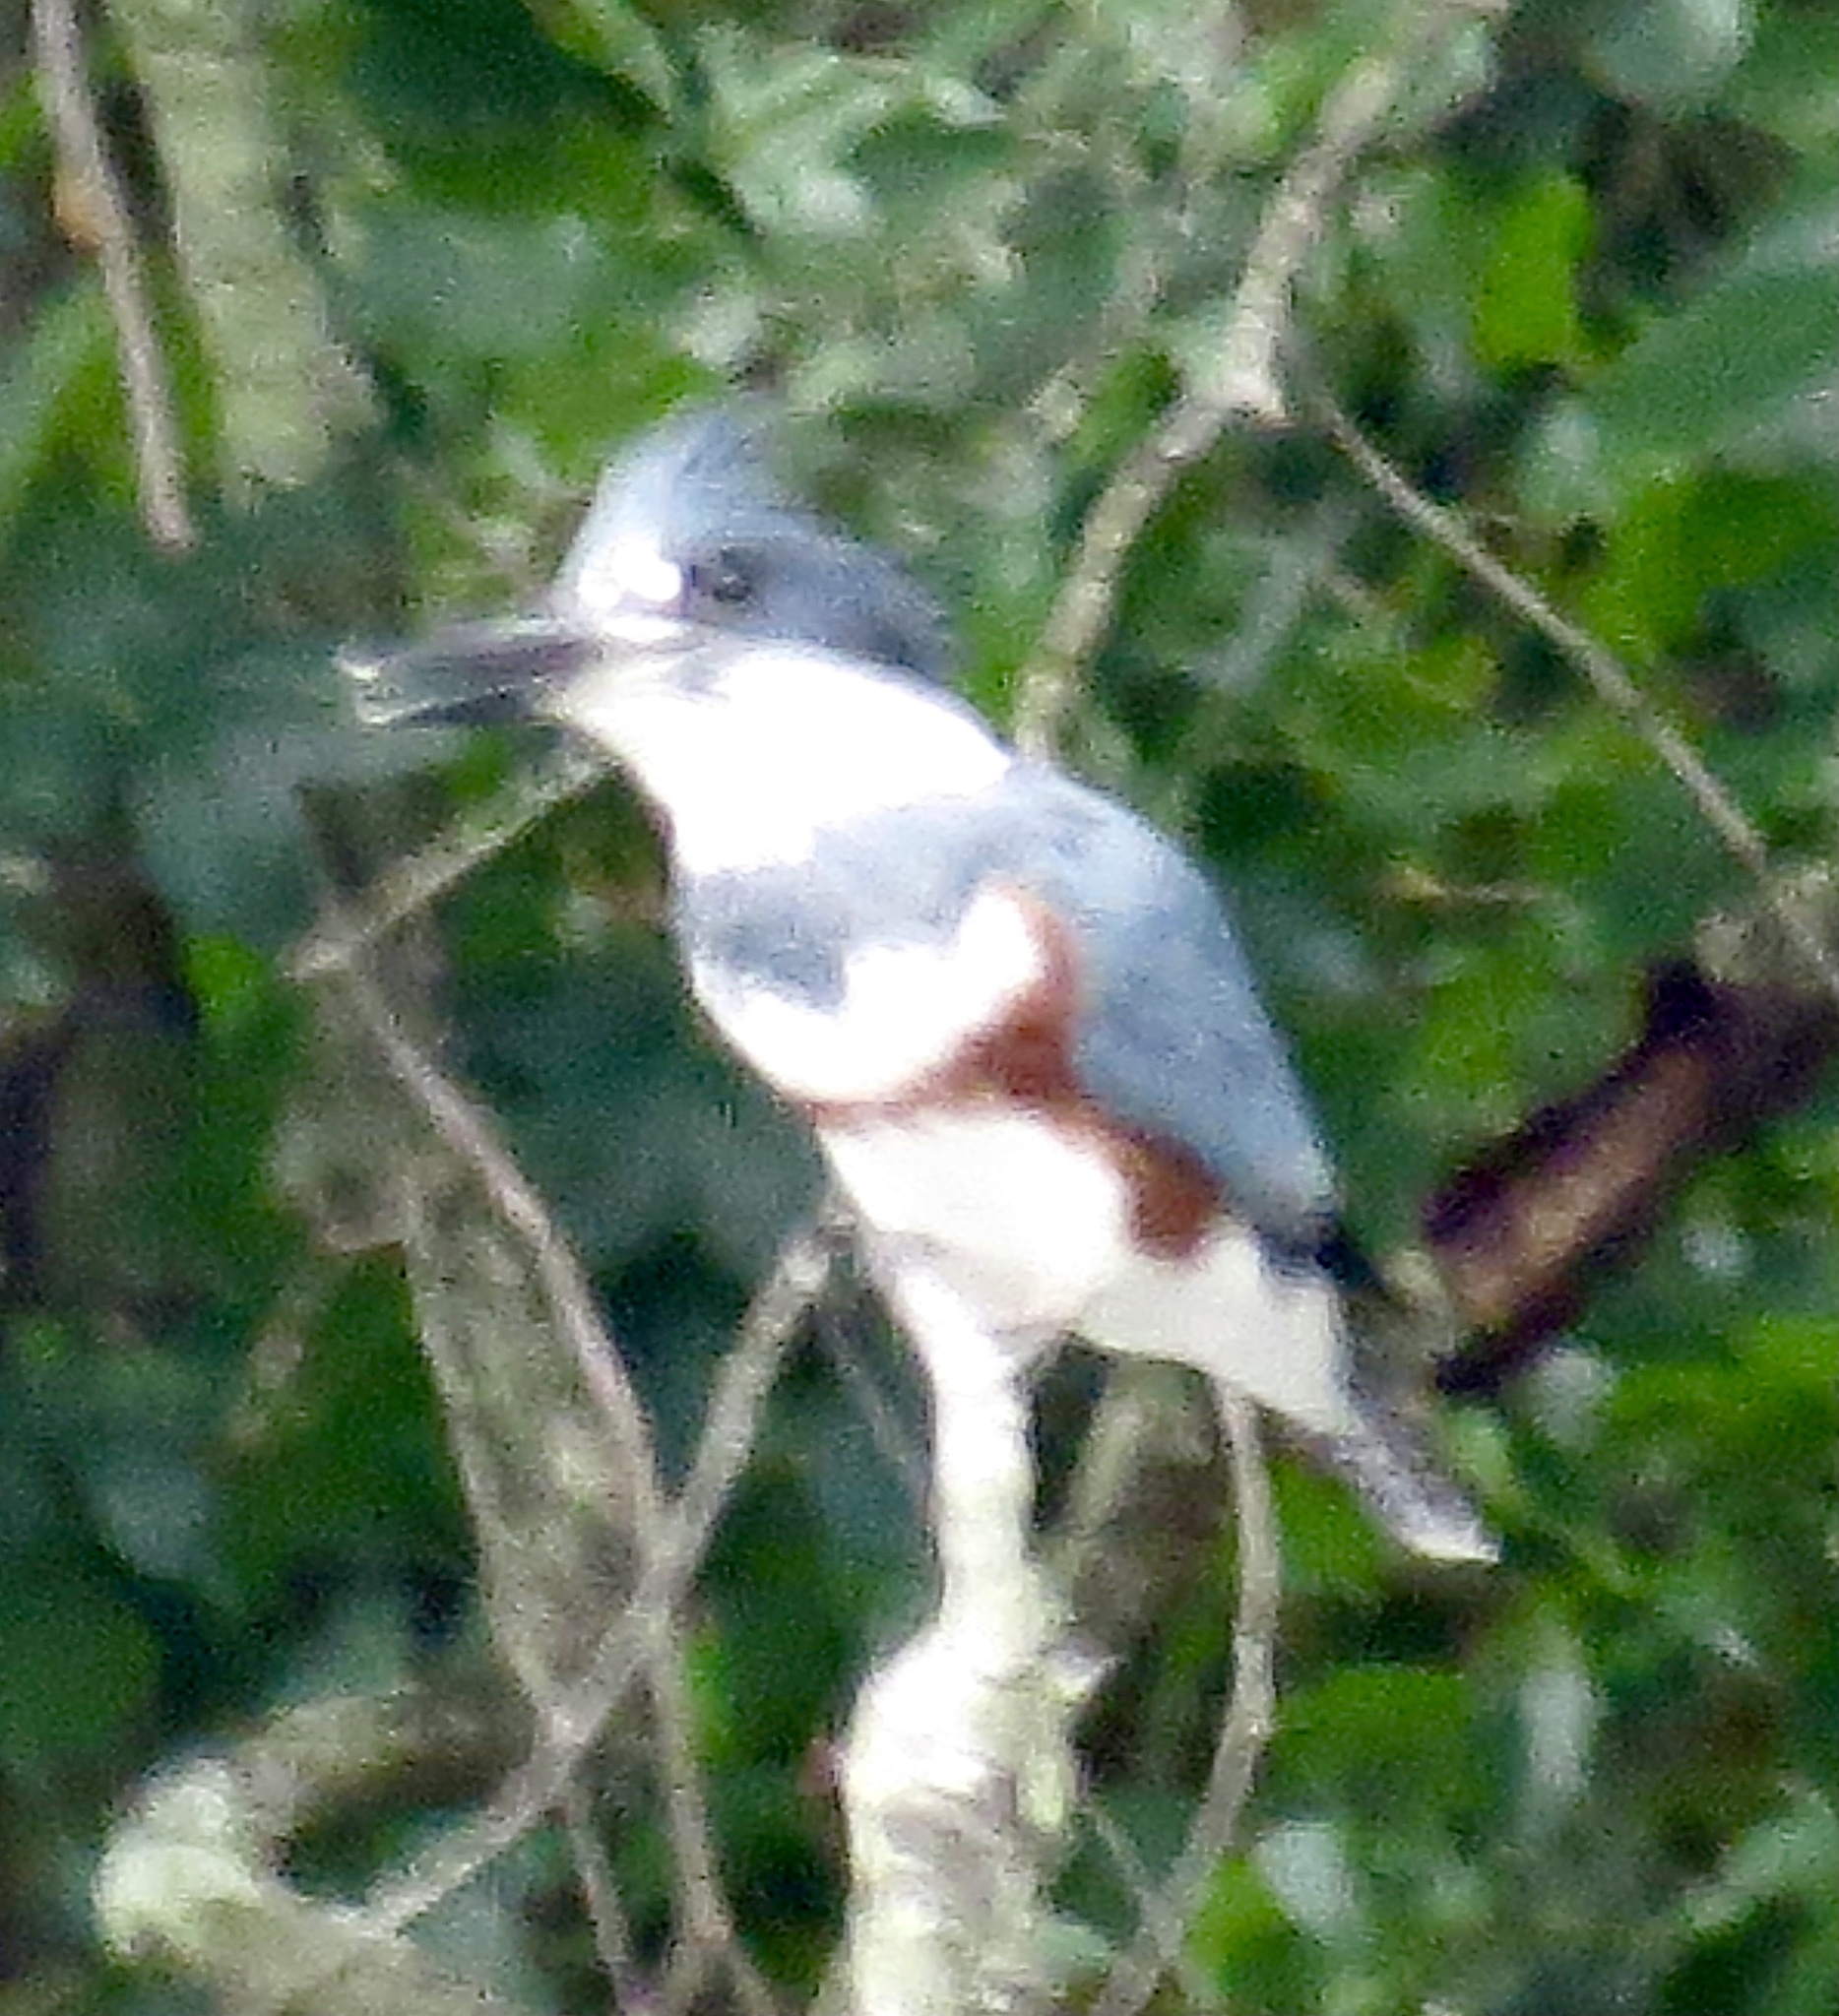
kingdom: Animalia
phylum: Chordata
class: Aves
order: Coraciiformes
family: Alcedinidae
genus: Megaceryle
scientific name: Megaceryle alcyon
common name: Belted kingfisher
